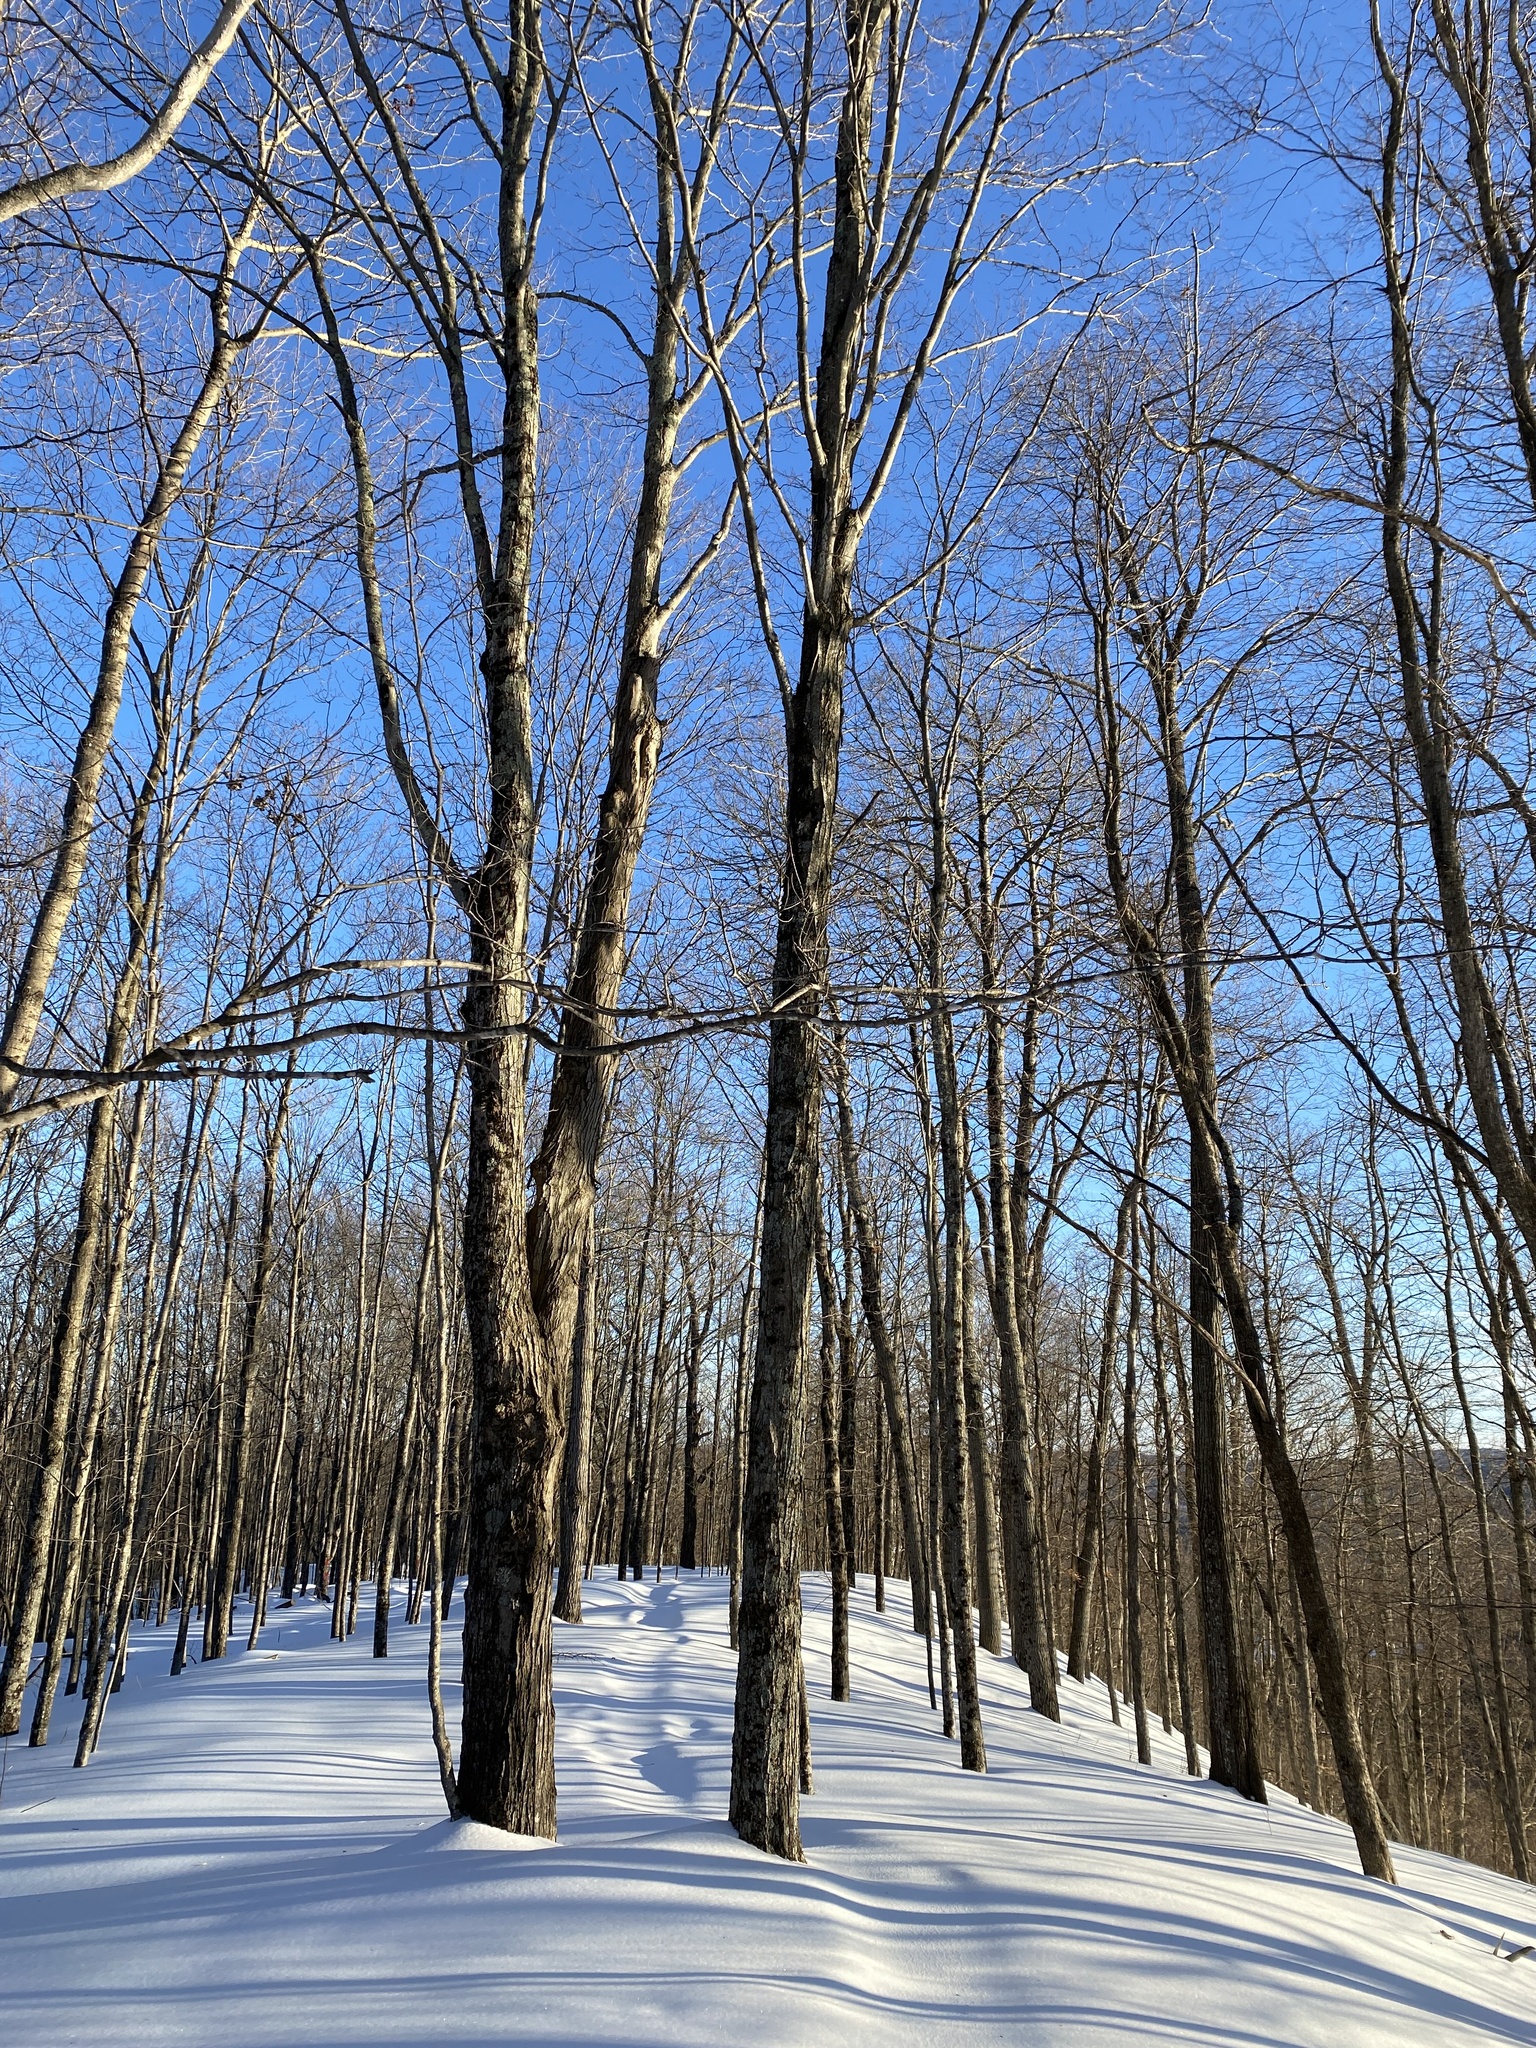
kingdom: Plantae
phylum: Tracheophyta
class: Magnoliopsida
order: Sapindales
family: Sapindaceae
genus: Acer
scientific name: Acer saccharum
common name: Sugar maple
